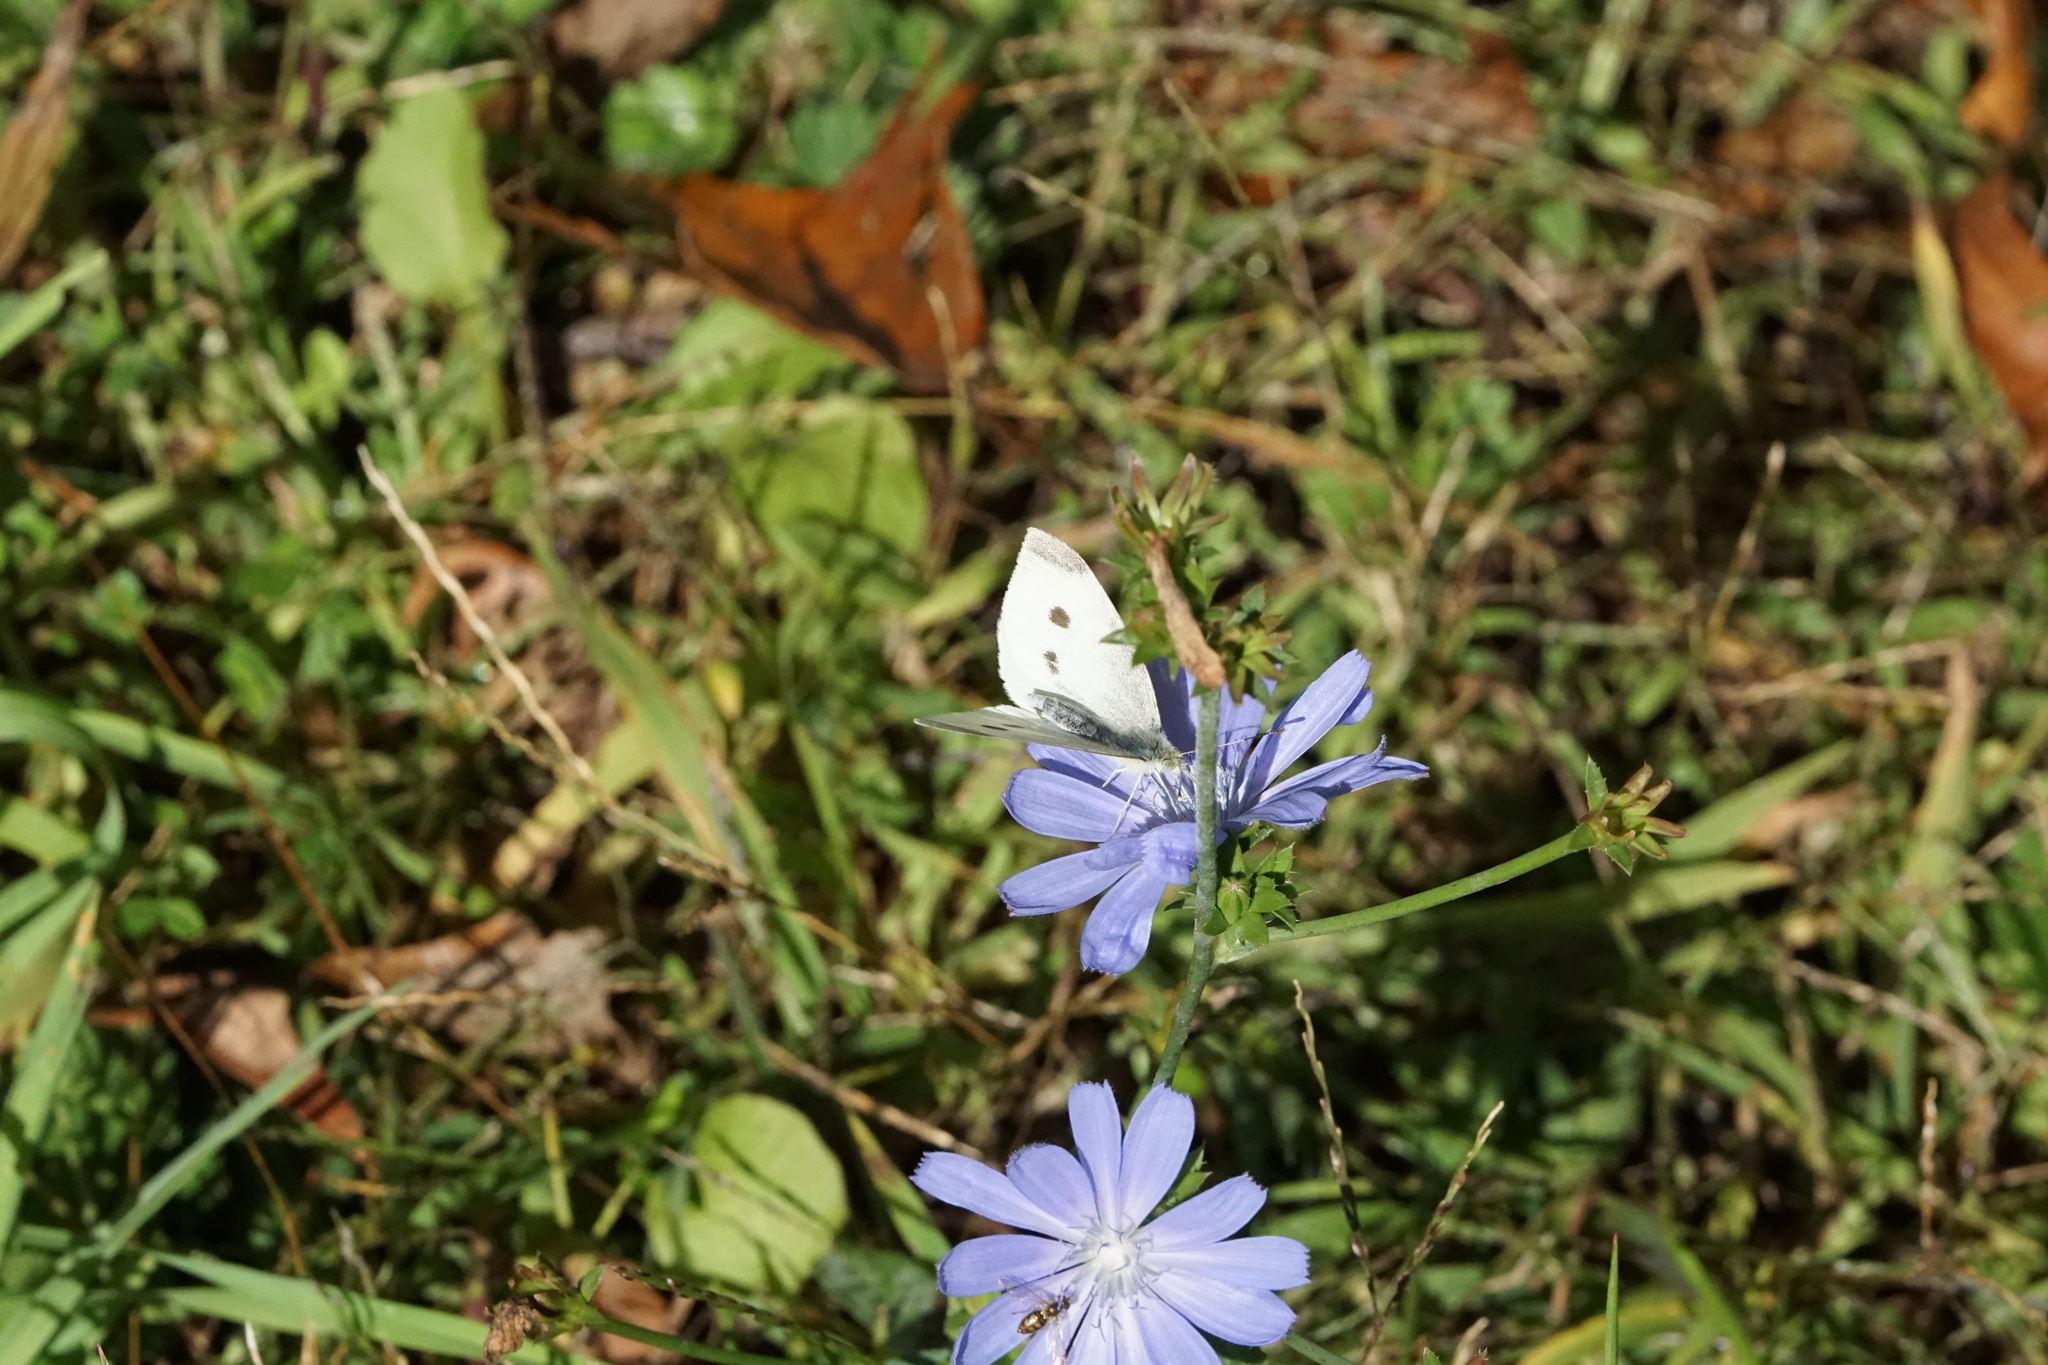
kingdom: Animalia
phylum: Arthropoda
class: Insecta
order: Lepidoptera
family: Pieridae
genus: Pieris
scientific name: Pieris rapae
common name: Small white
